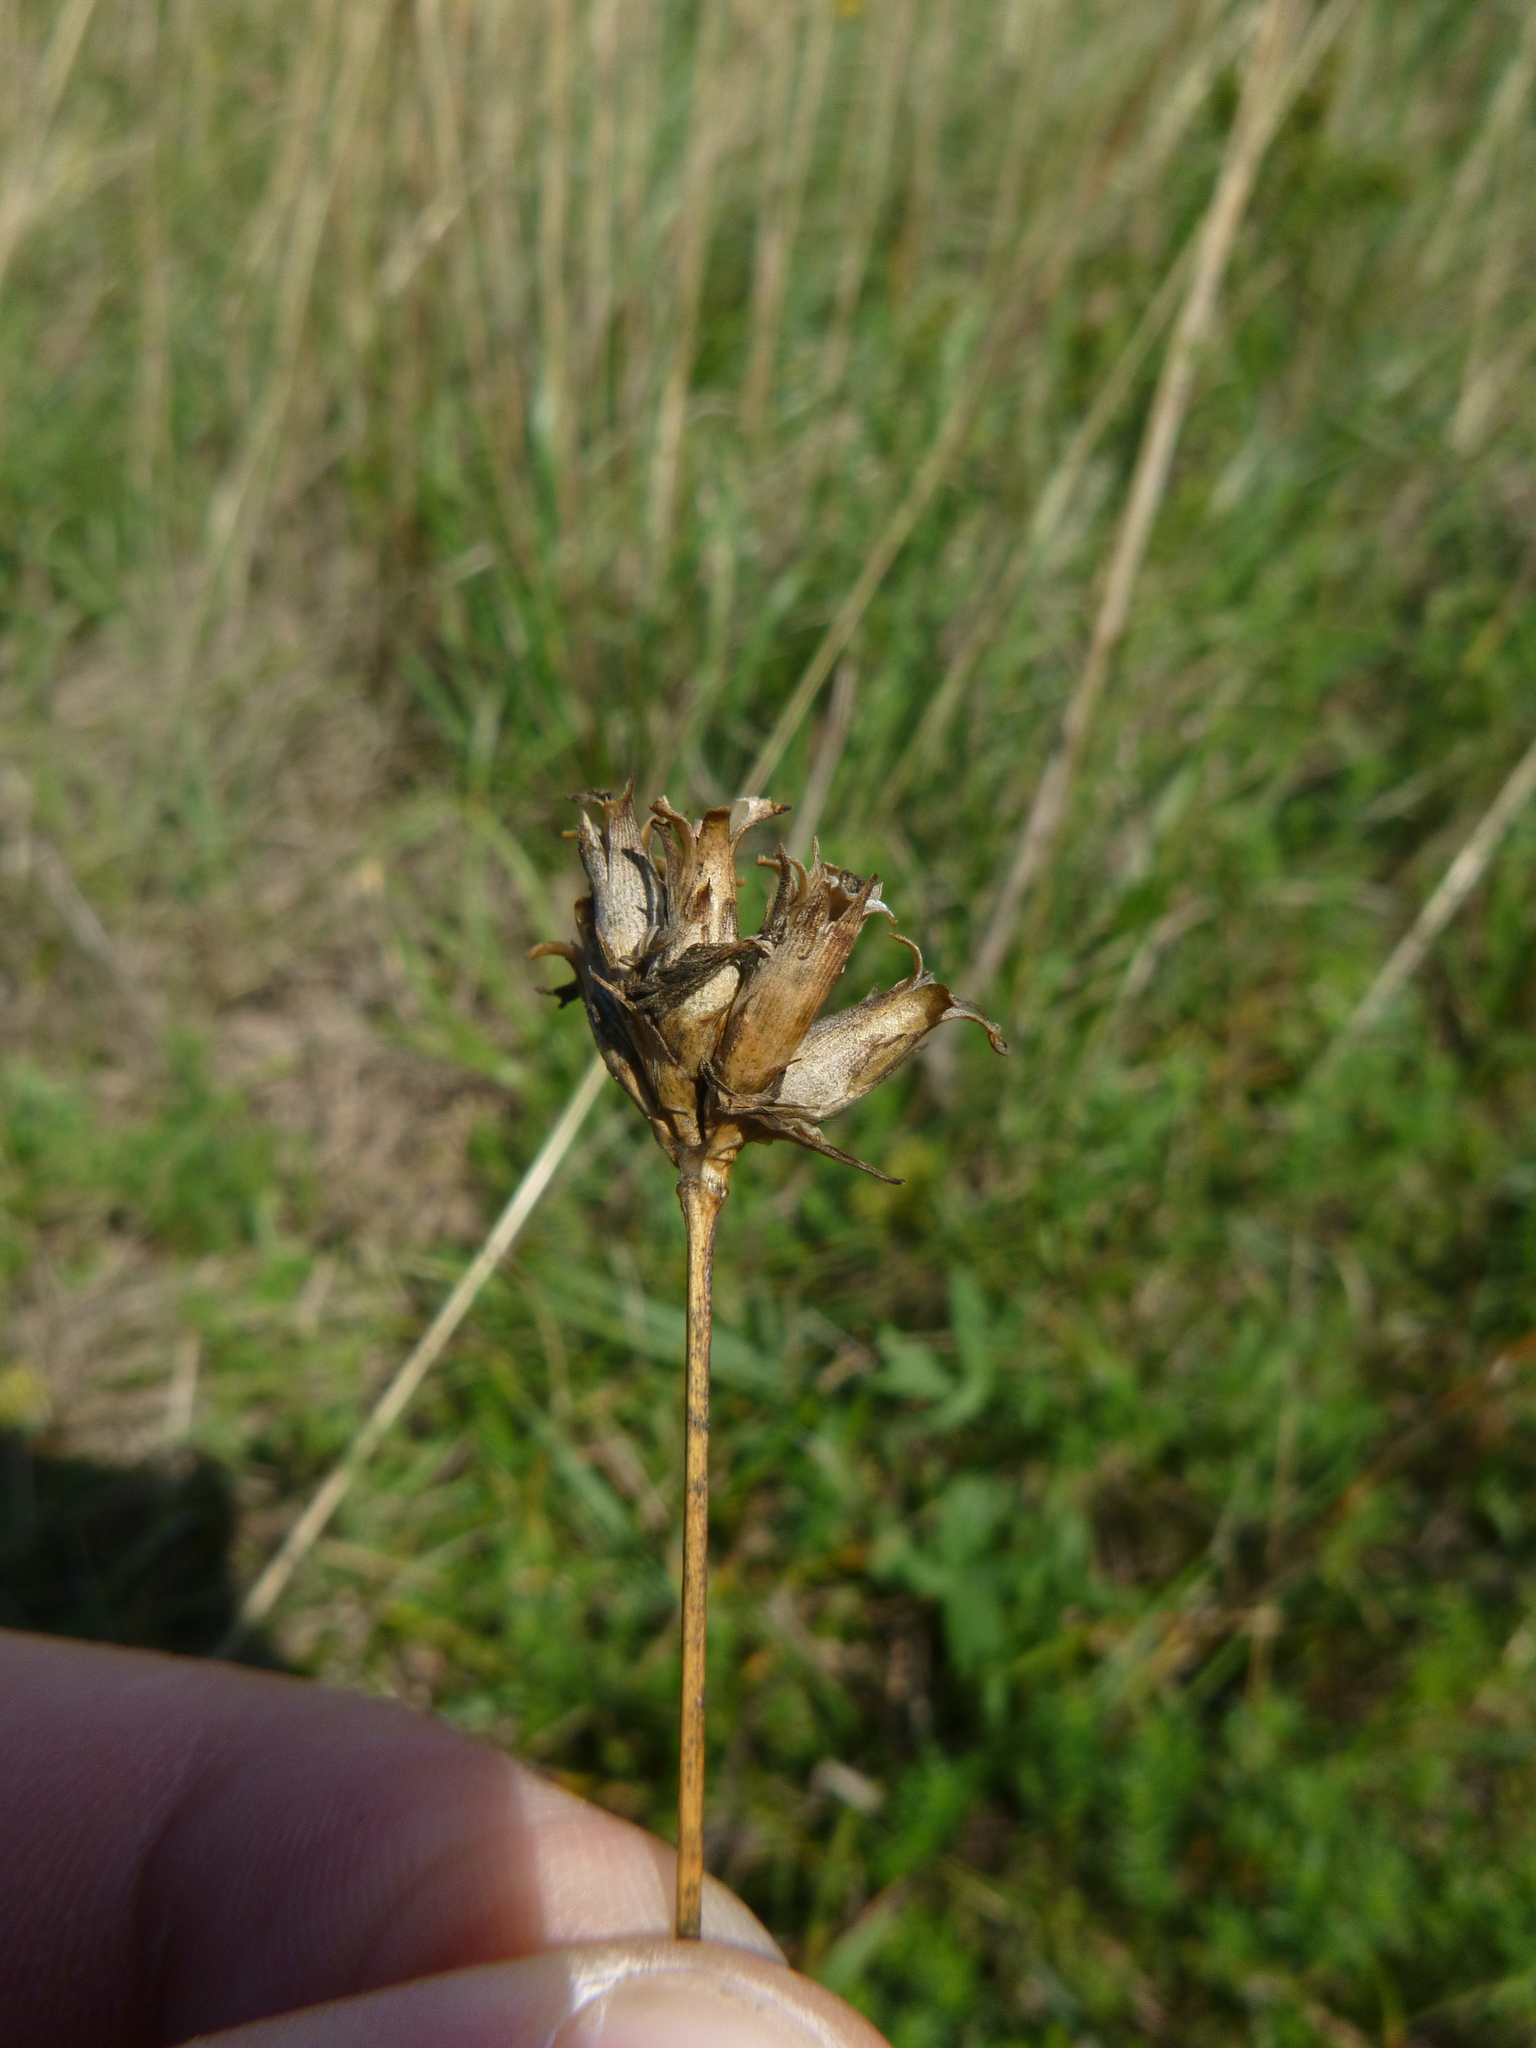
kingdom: Plantae
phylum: Tracheophyta
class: Magnoliopsida
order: Caryophyllales
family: Caryophyllaceae
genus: Dianthus
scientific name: Dianthus pontederae
